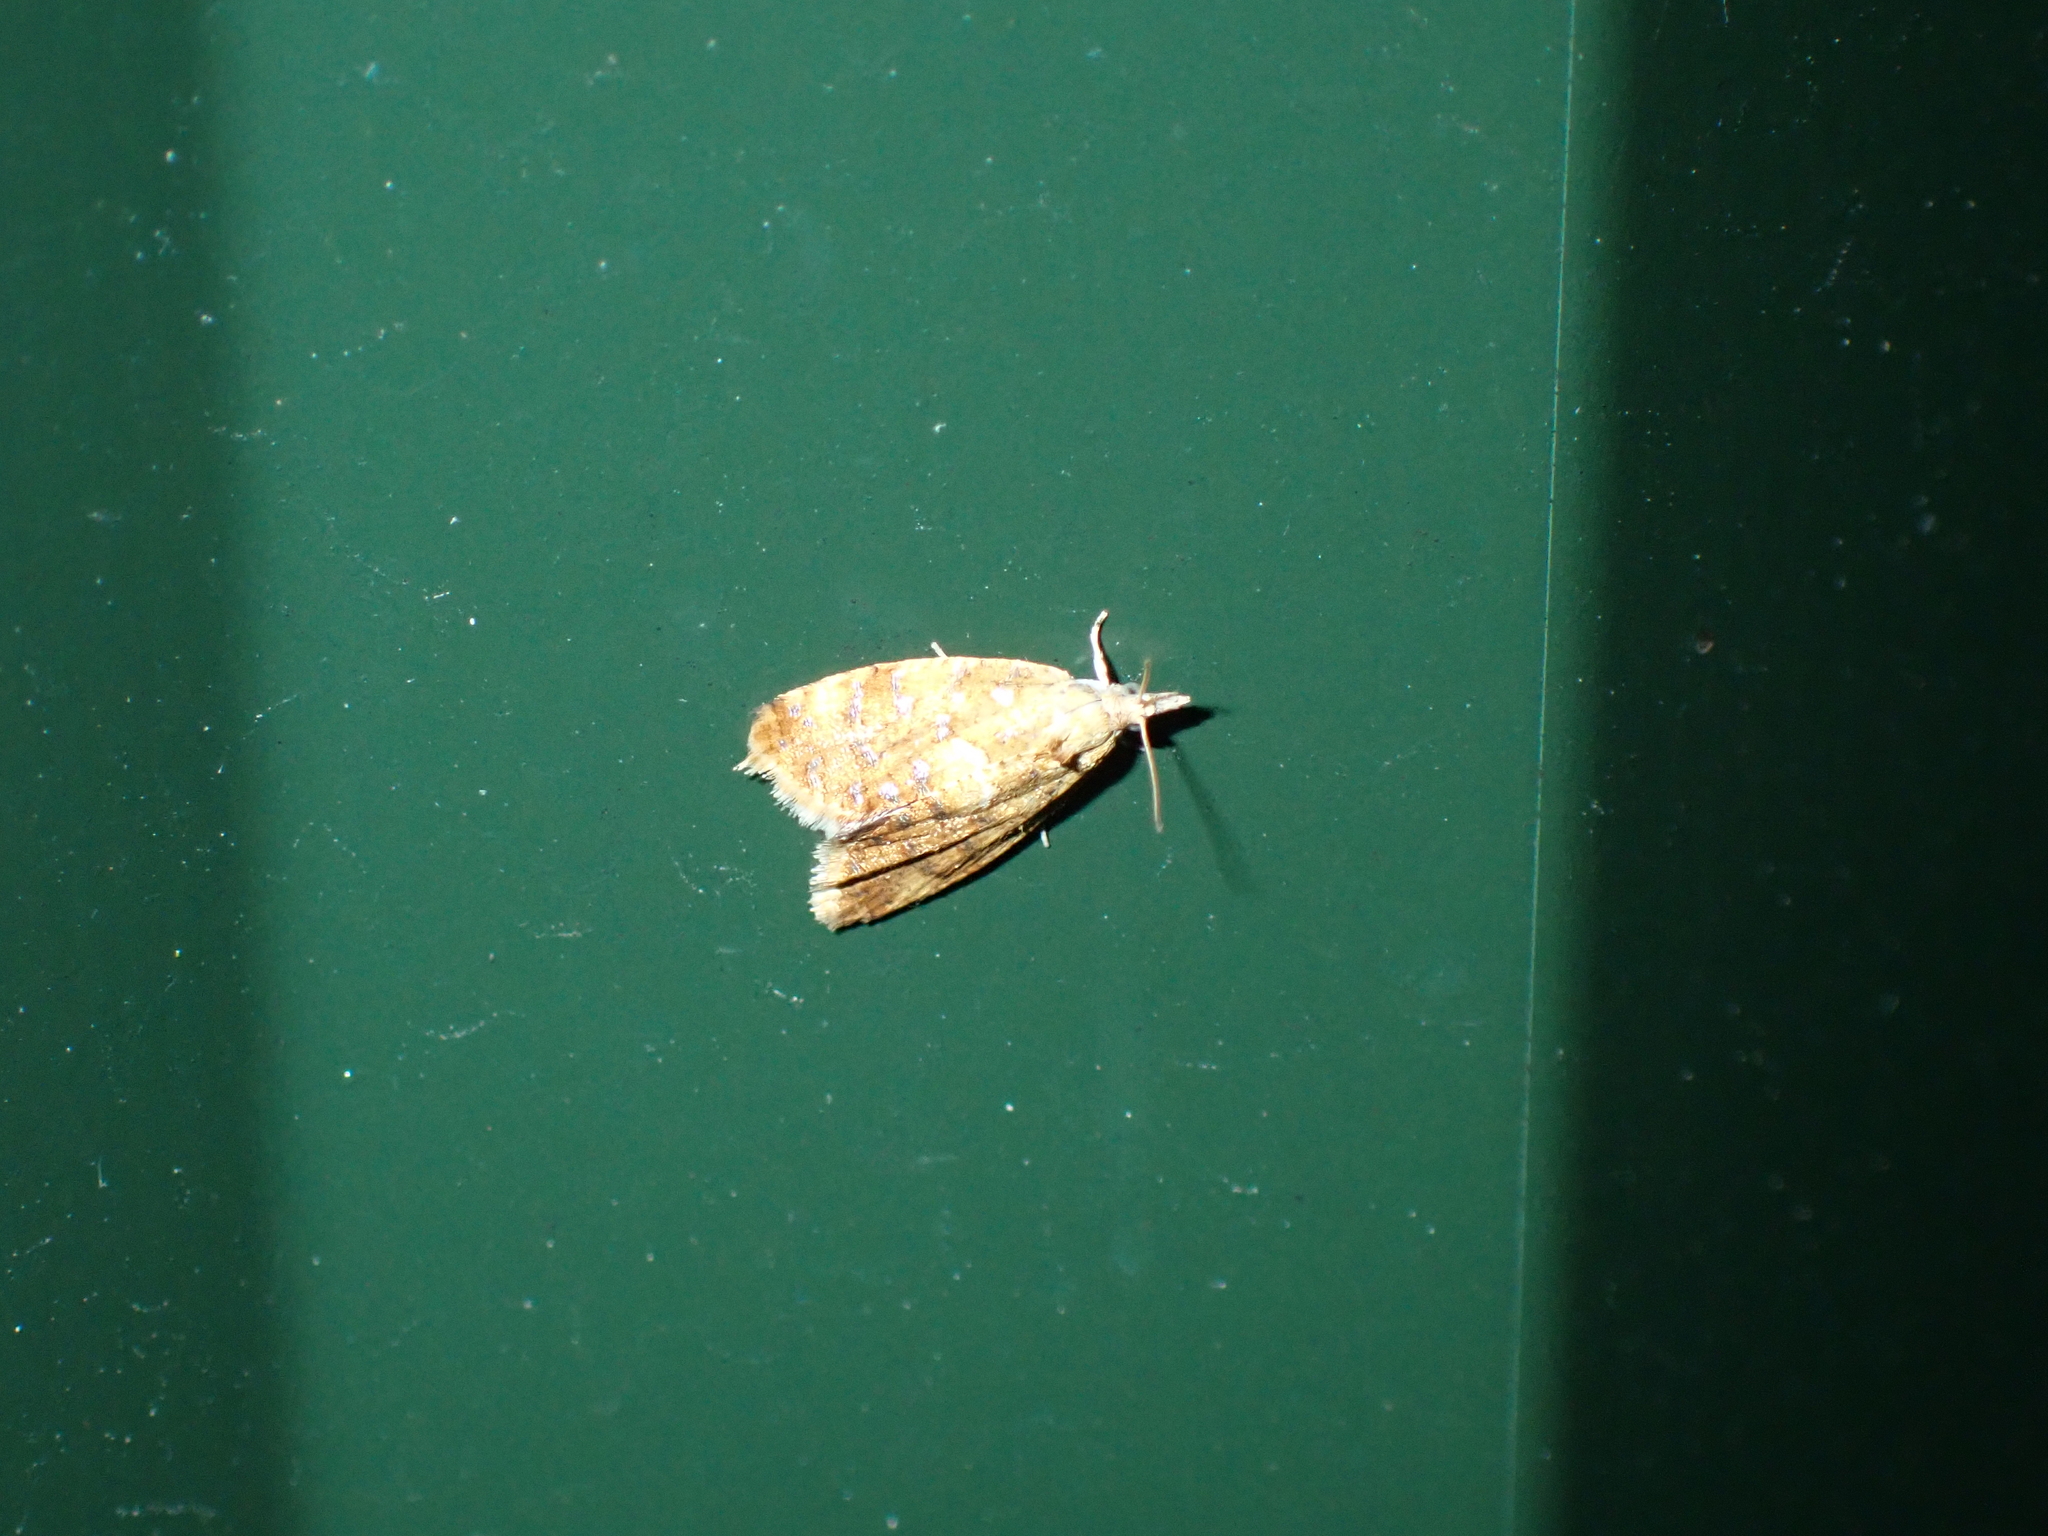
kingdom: Animalia
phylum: Arthropoda
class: Insecta
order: Lepidoptera
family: Tortricidae
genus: Pseudargyrotoza
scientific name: Pseudargyrotoza conwagana
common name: Yellow-spot twist
